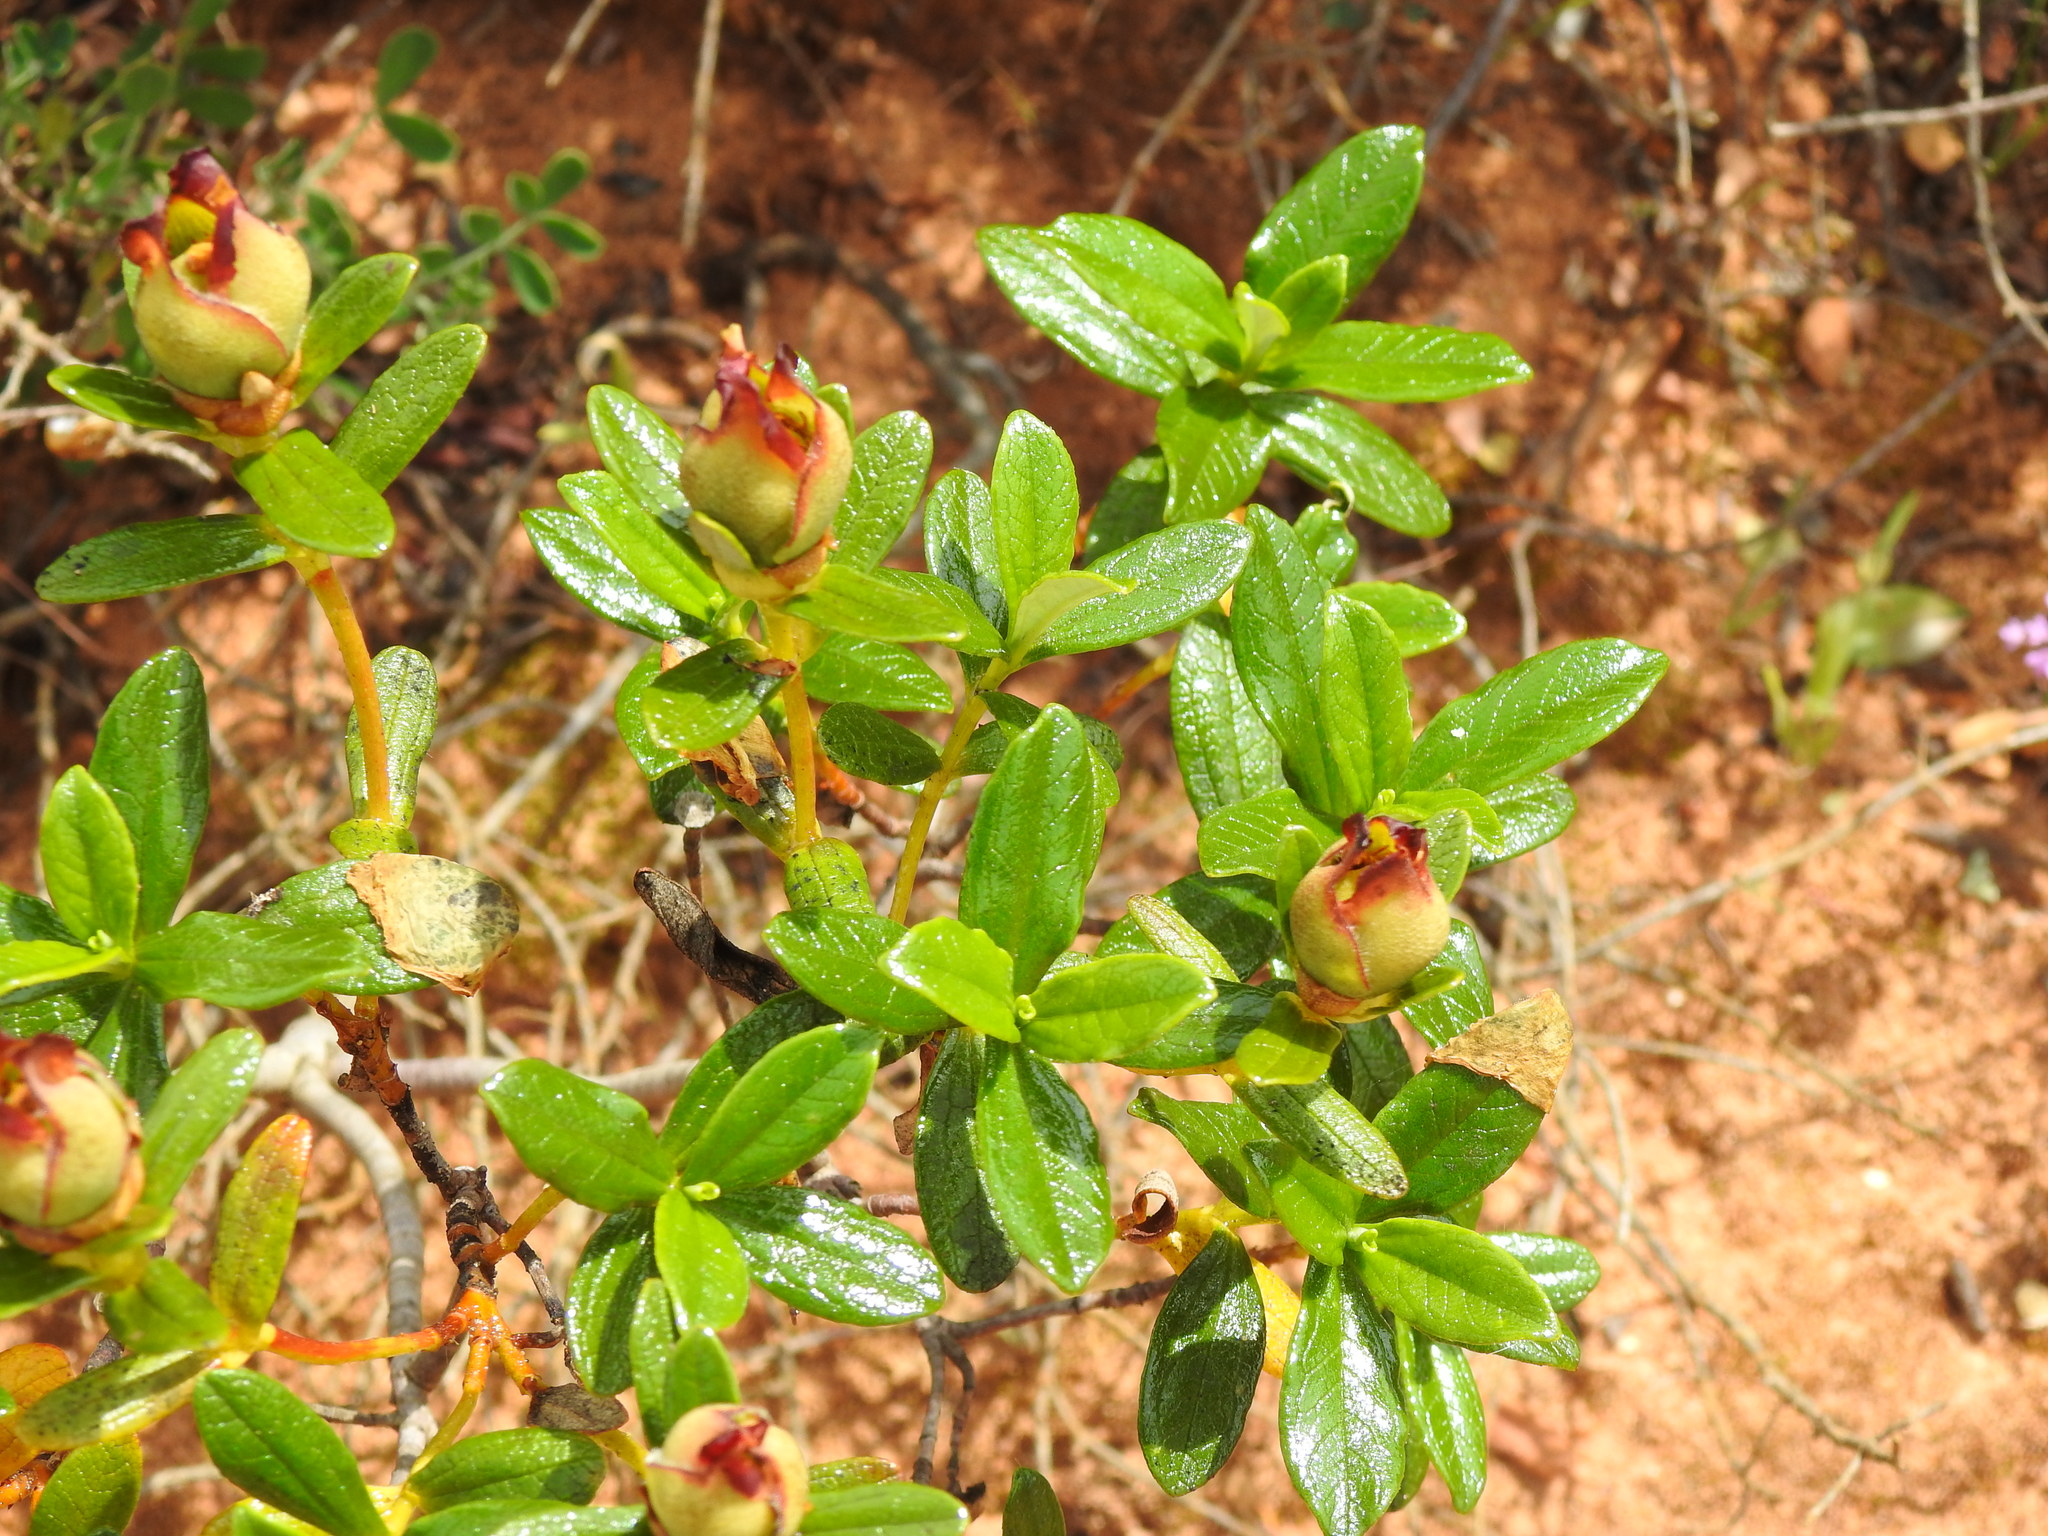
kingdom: Plantae
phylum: Tracheophyta
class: Magnoliopsida
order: Malvales
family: Cistaceae
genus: Cistus
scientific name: Cistus ladanifer
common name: Common gum cistus
